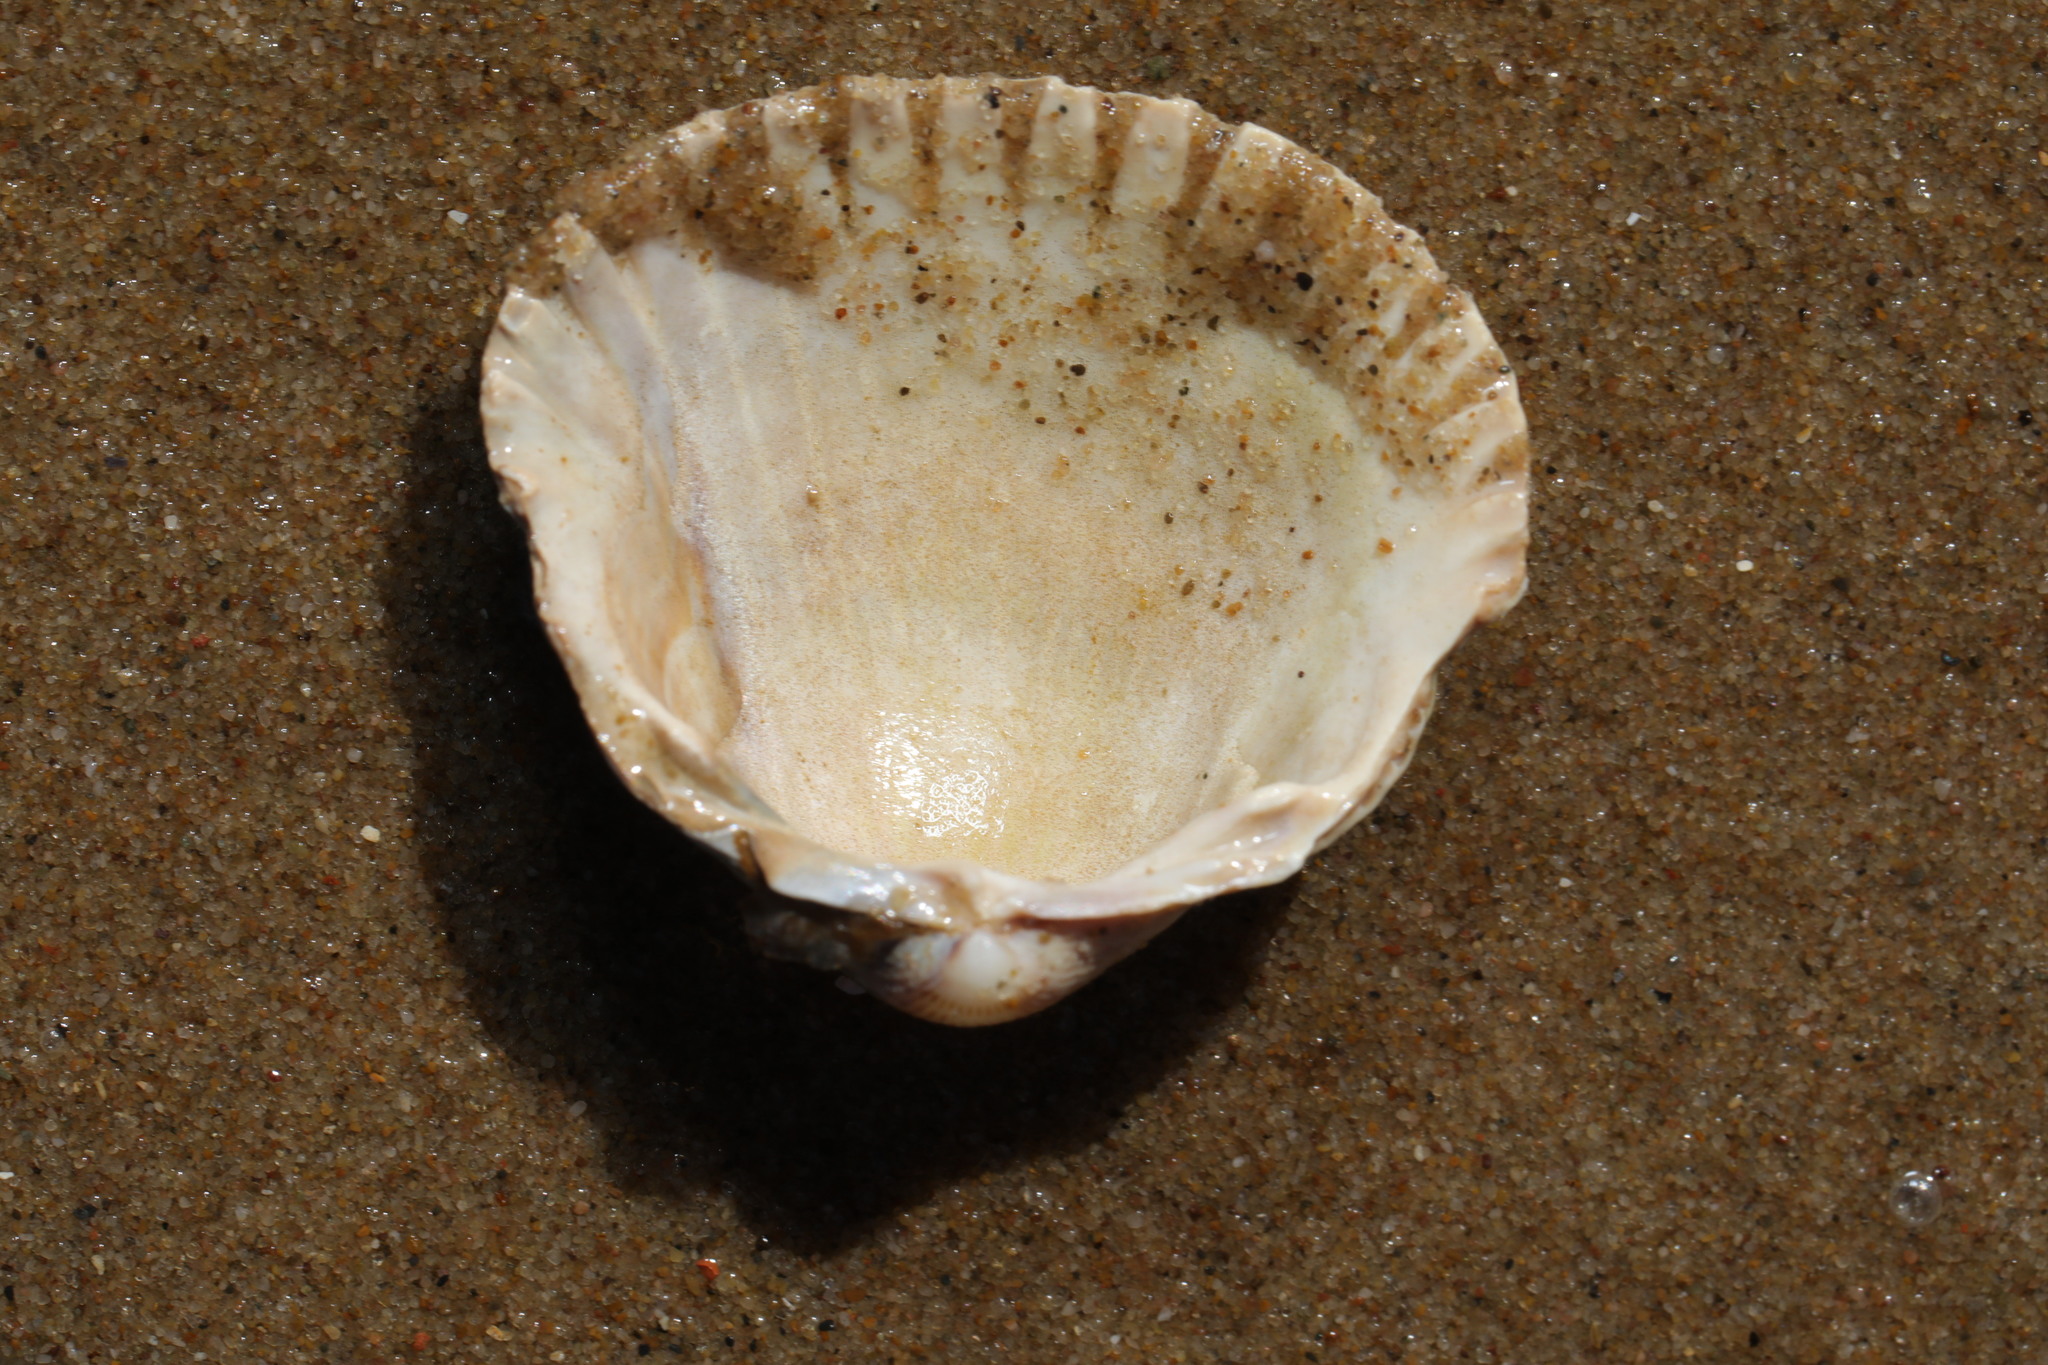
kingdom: Animalia
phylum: Mollusca
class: Bivalvia
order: Cardiida
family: Cardiidae
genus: Cerastoderma
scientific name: Cerastoderma edule
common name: Common cockle
